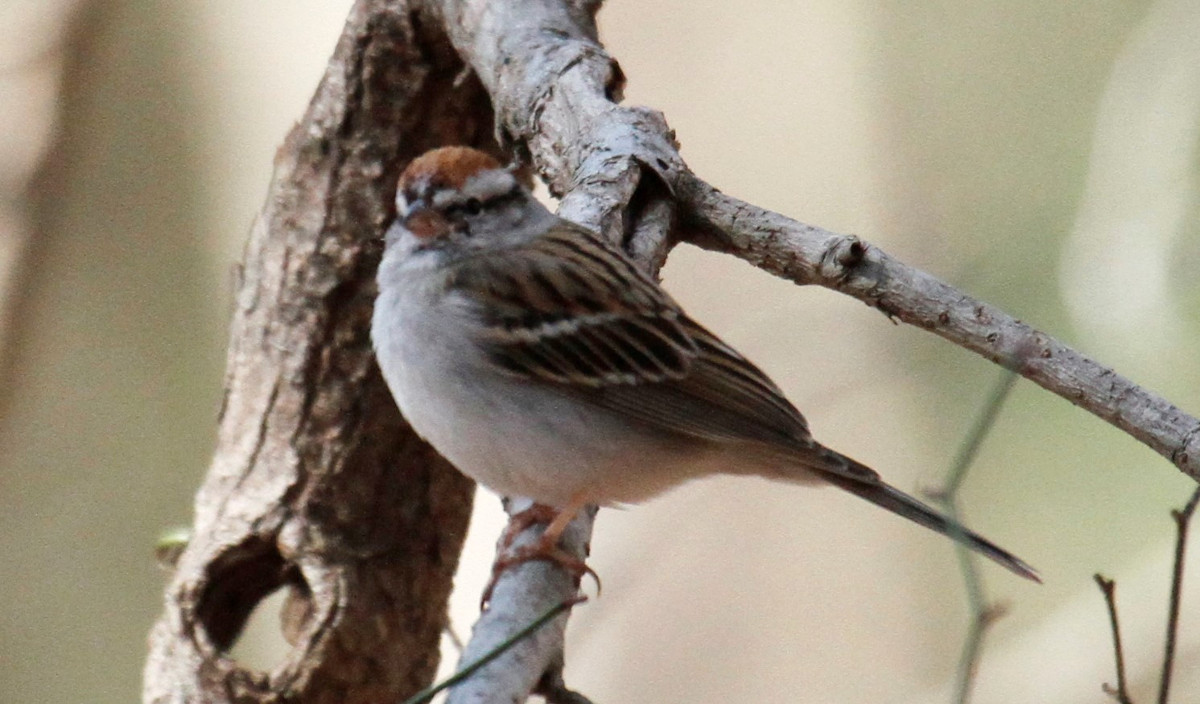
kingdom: Animalia
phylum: Chordata
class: Aves
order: Passeriformes
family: Passerellidae
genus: Spizella
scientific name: Spizella passerina
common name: Chipping sparrow
